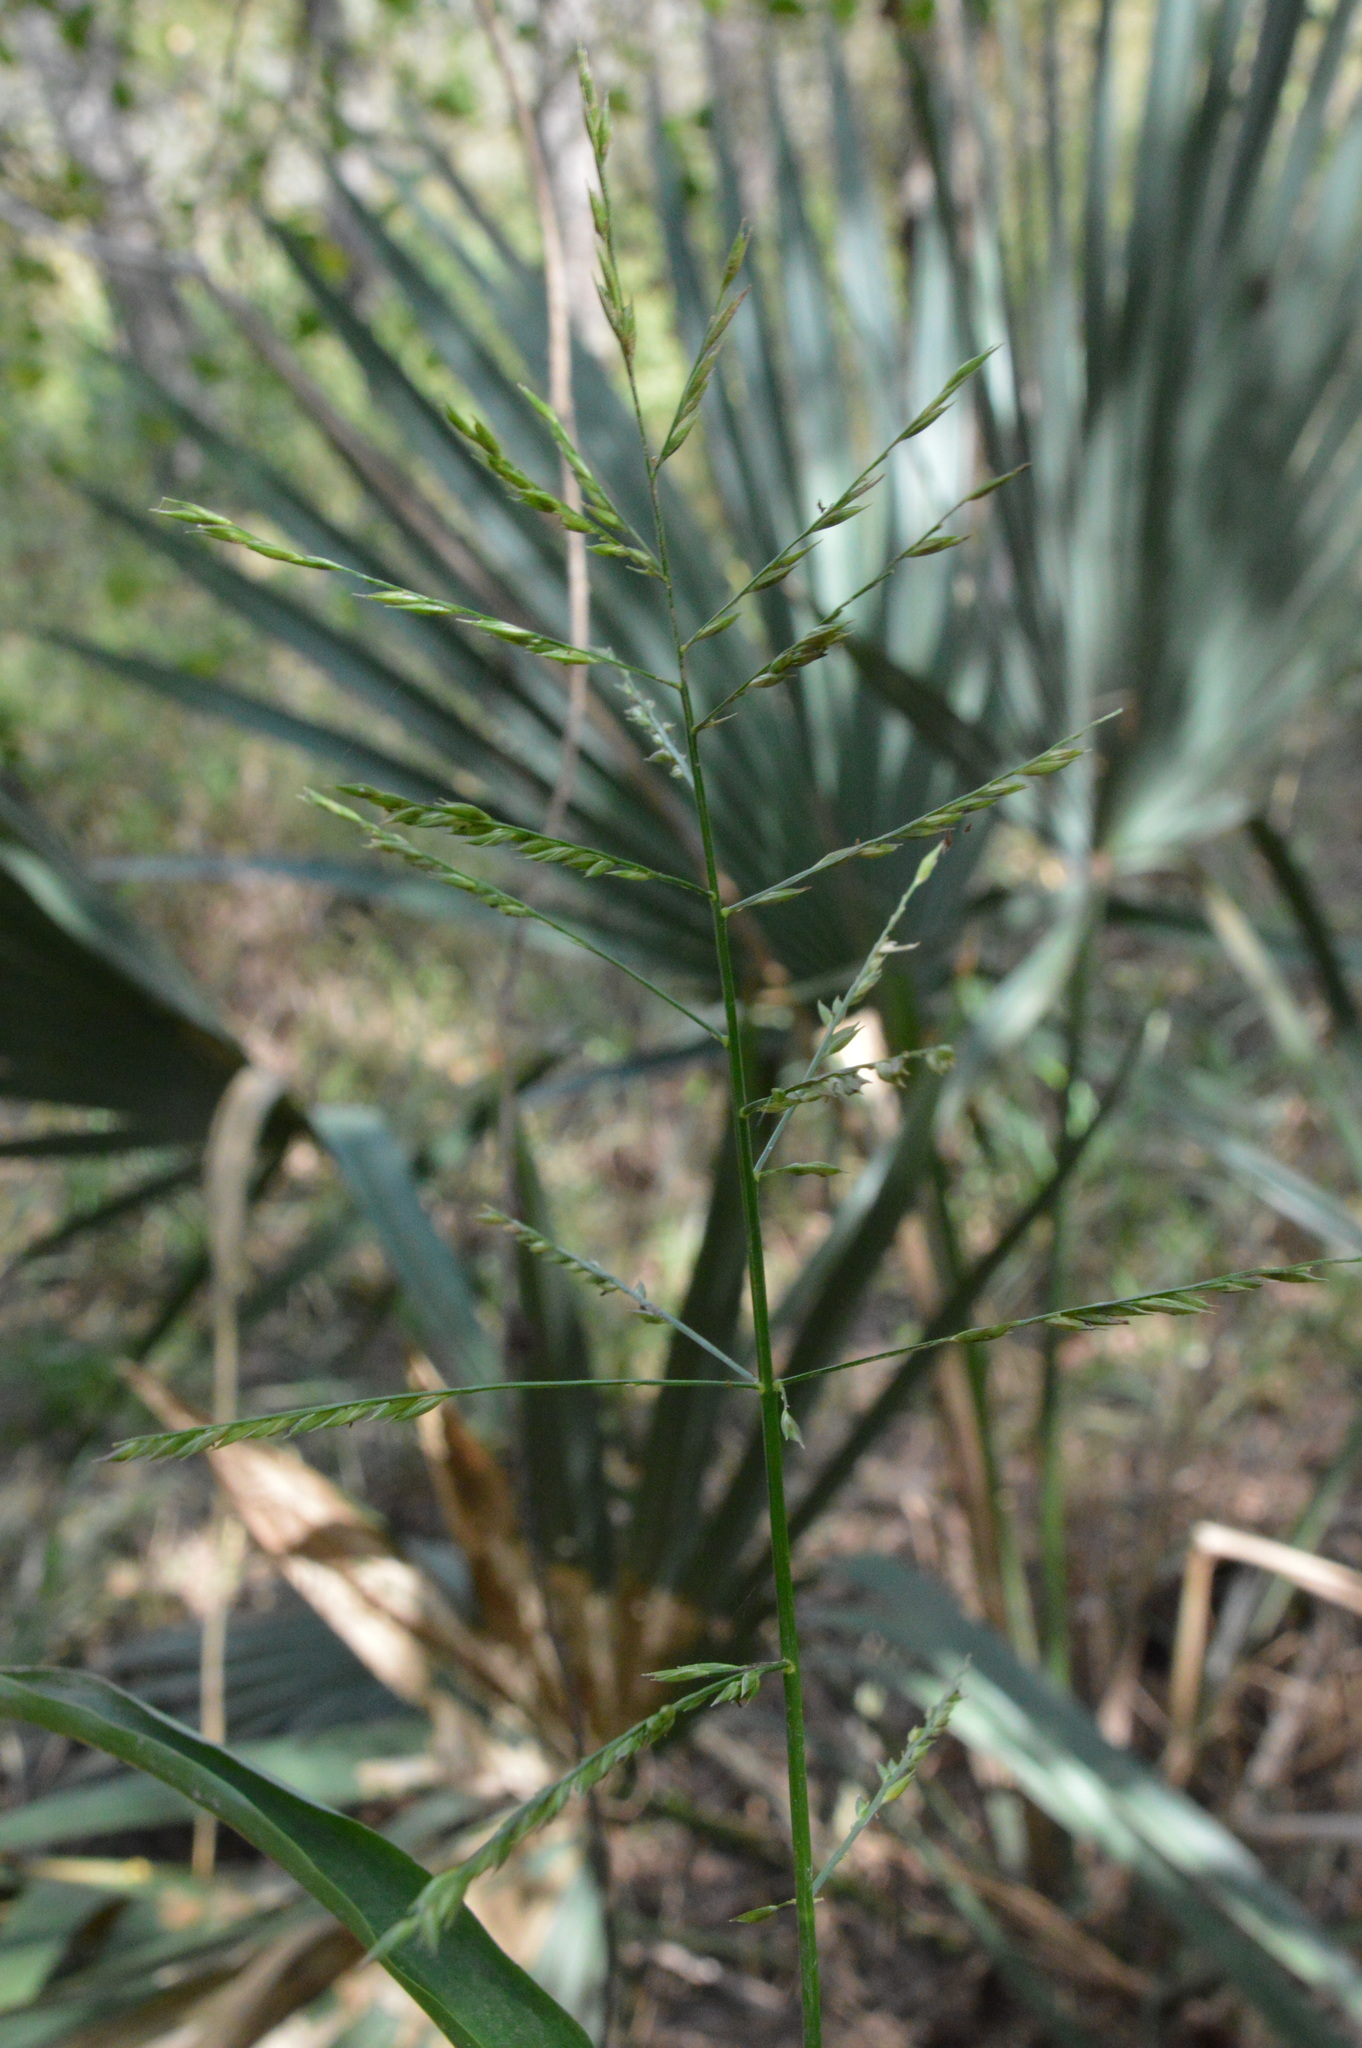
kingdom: Plantae
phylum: Tracheophyta
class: Liliopsida
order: Poales
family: Poaceae
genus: Panicum
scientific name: Panicum gymnocarpon
